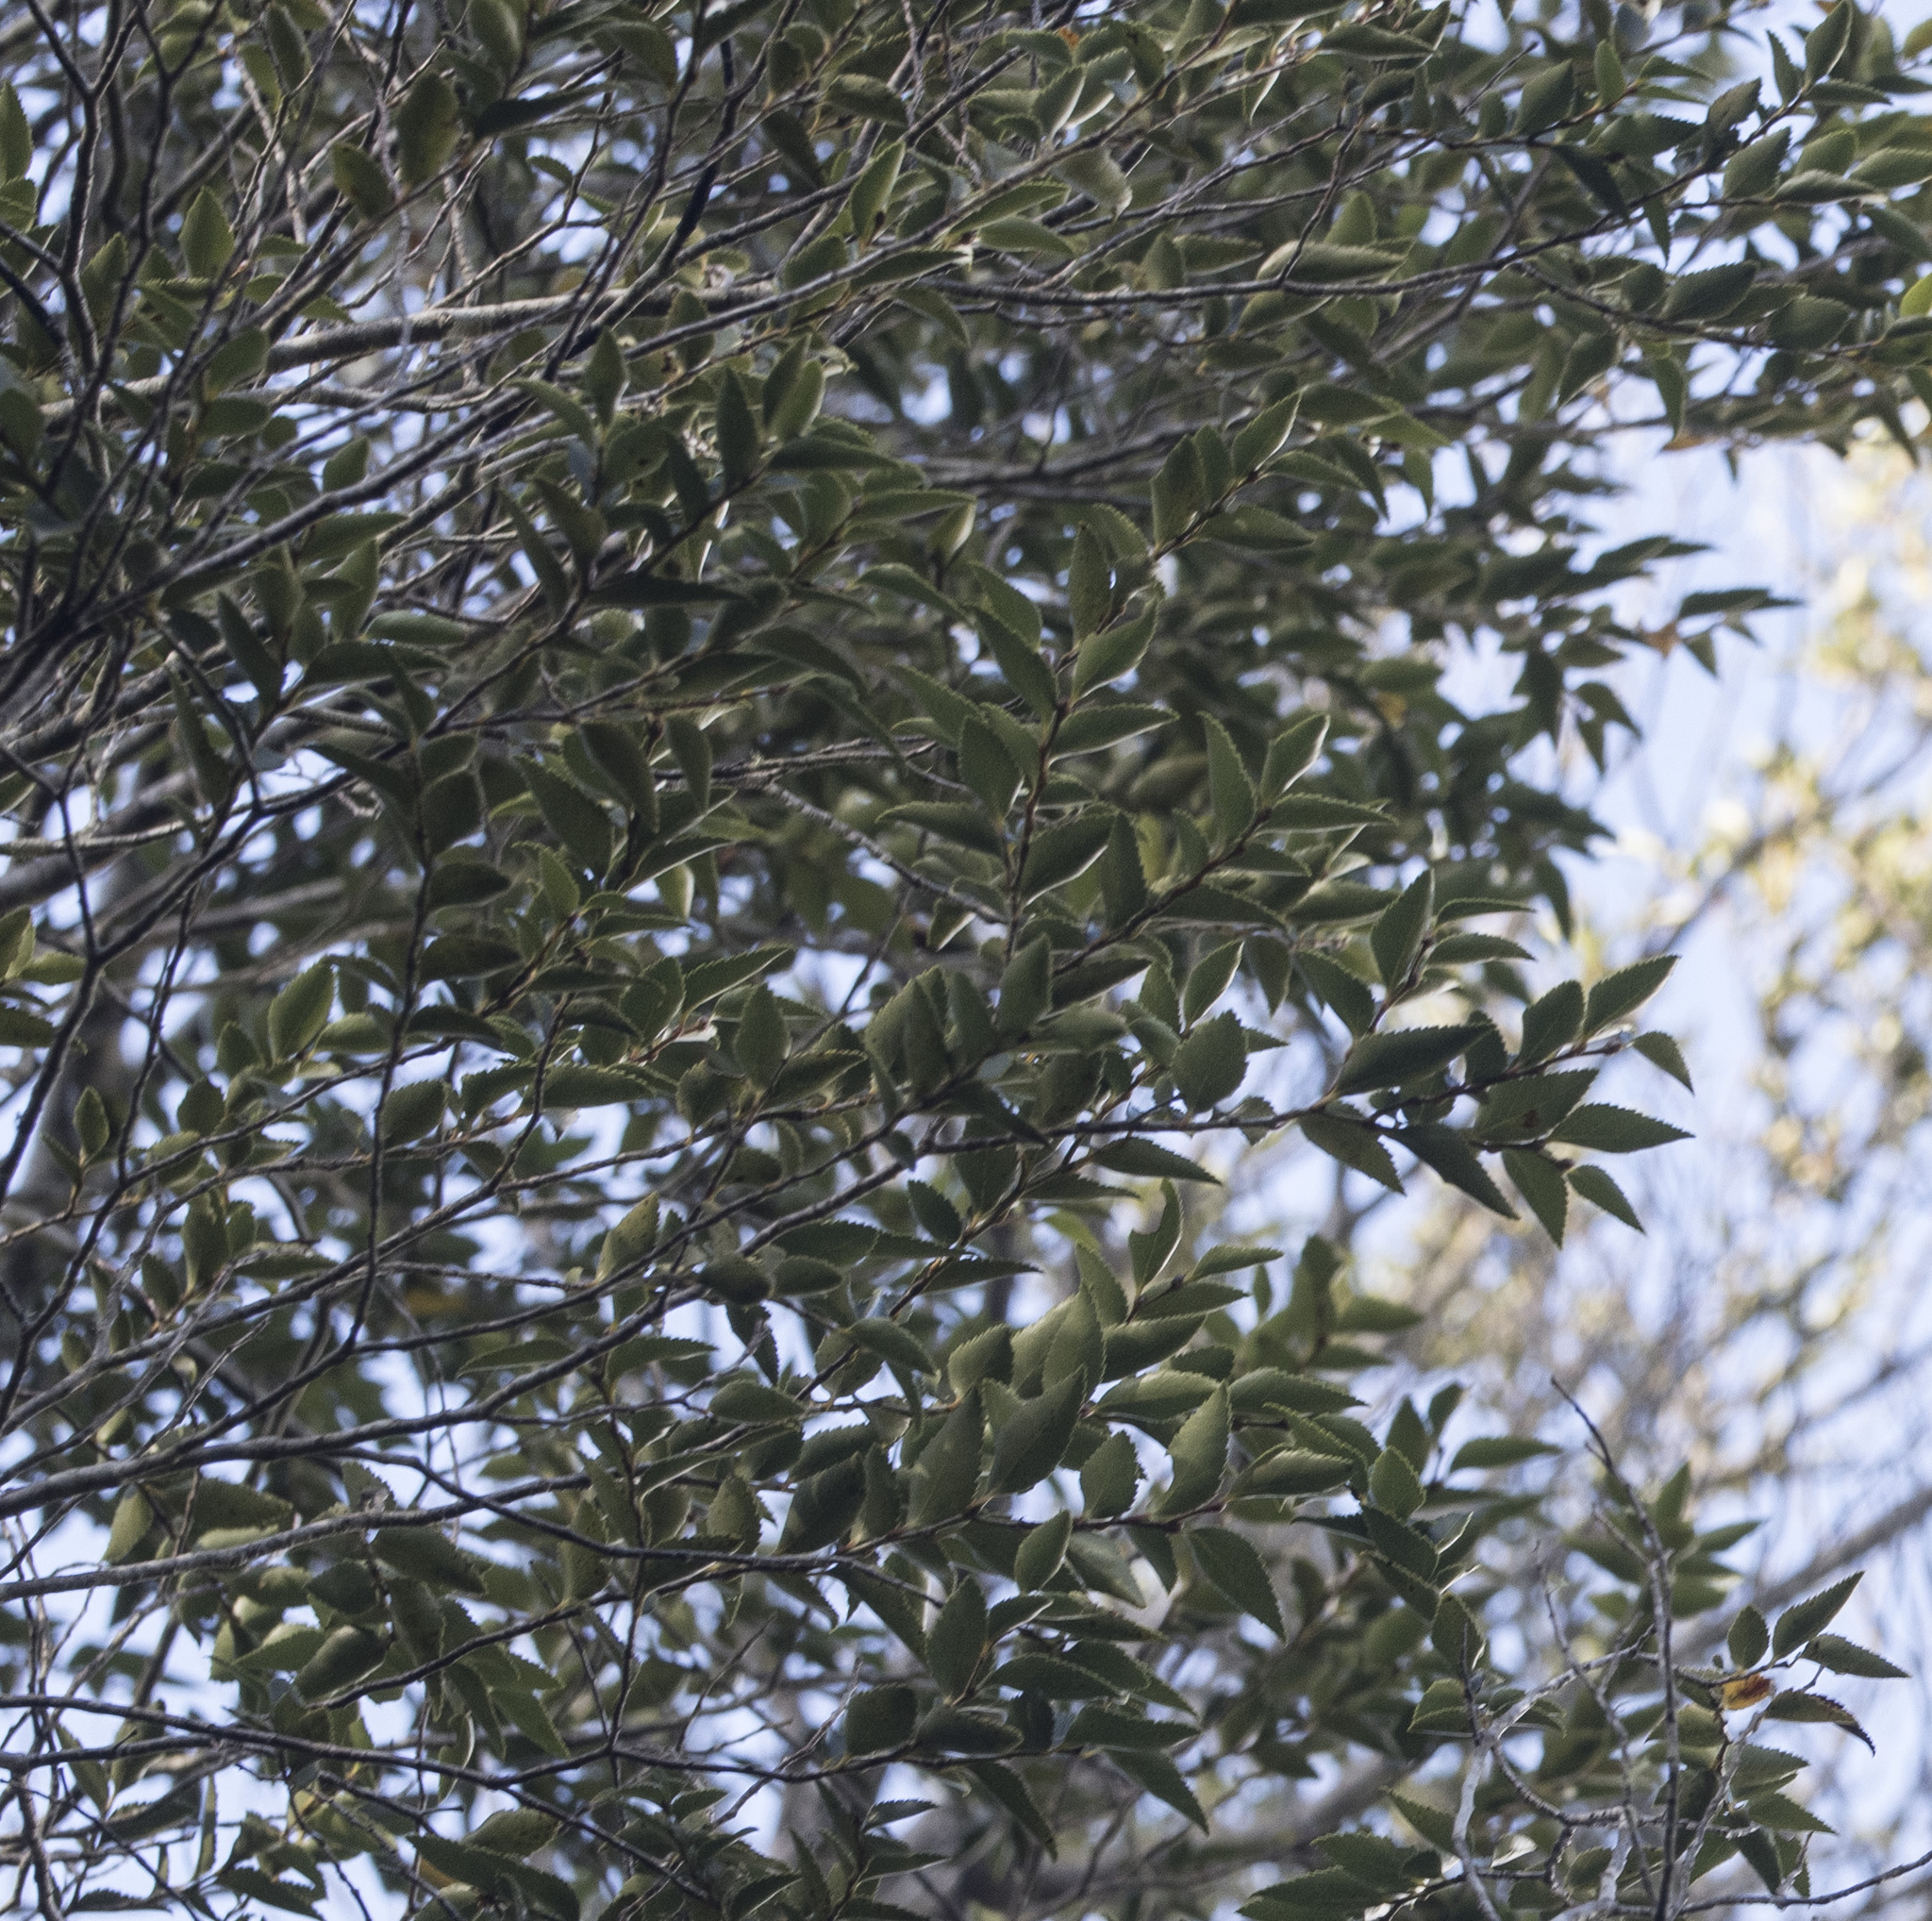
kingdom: Plantae
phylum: Tracheophyta
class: Magnoliopsida
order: Fagales
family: Nothofagaceae
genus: Nothofagus
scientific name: Nothofagus nitida
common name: Chiloé's coigue
